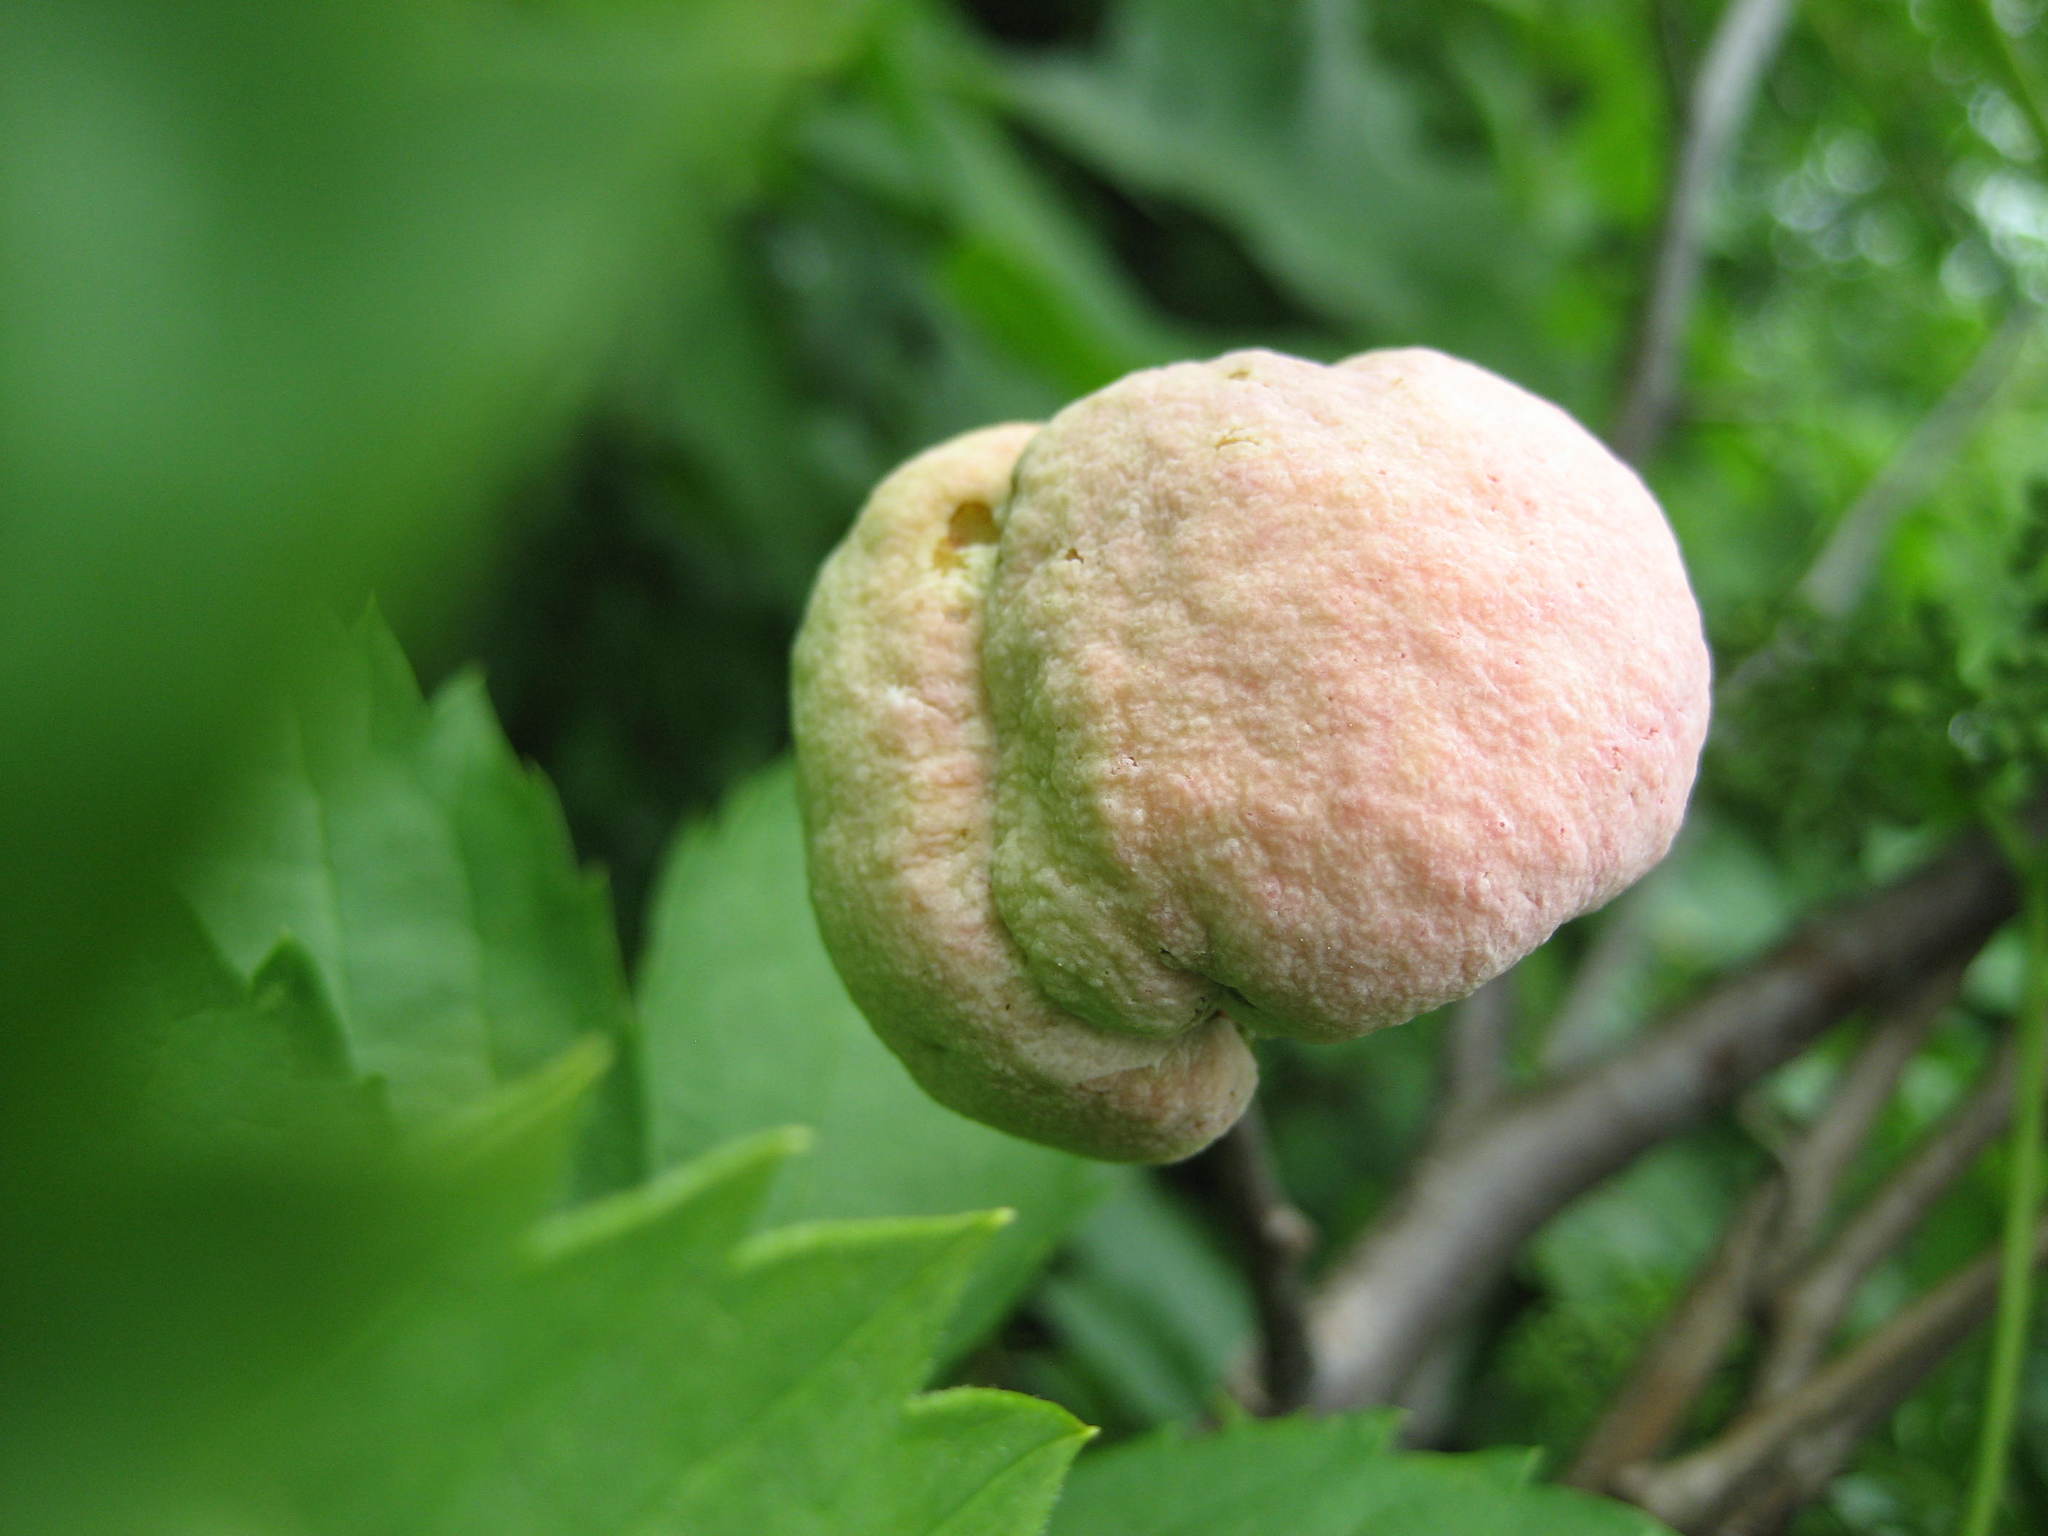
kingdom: Plantae
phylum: Tracheophyta
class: Magnoliopsida
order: Rosales
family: Rosaceae
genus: Prunus
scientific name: Prunus nigra
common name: Black plum
